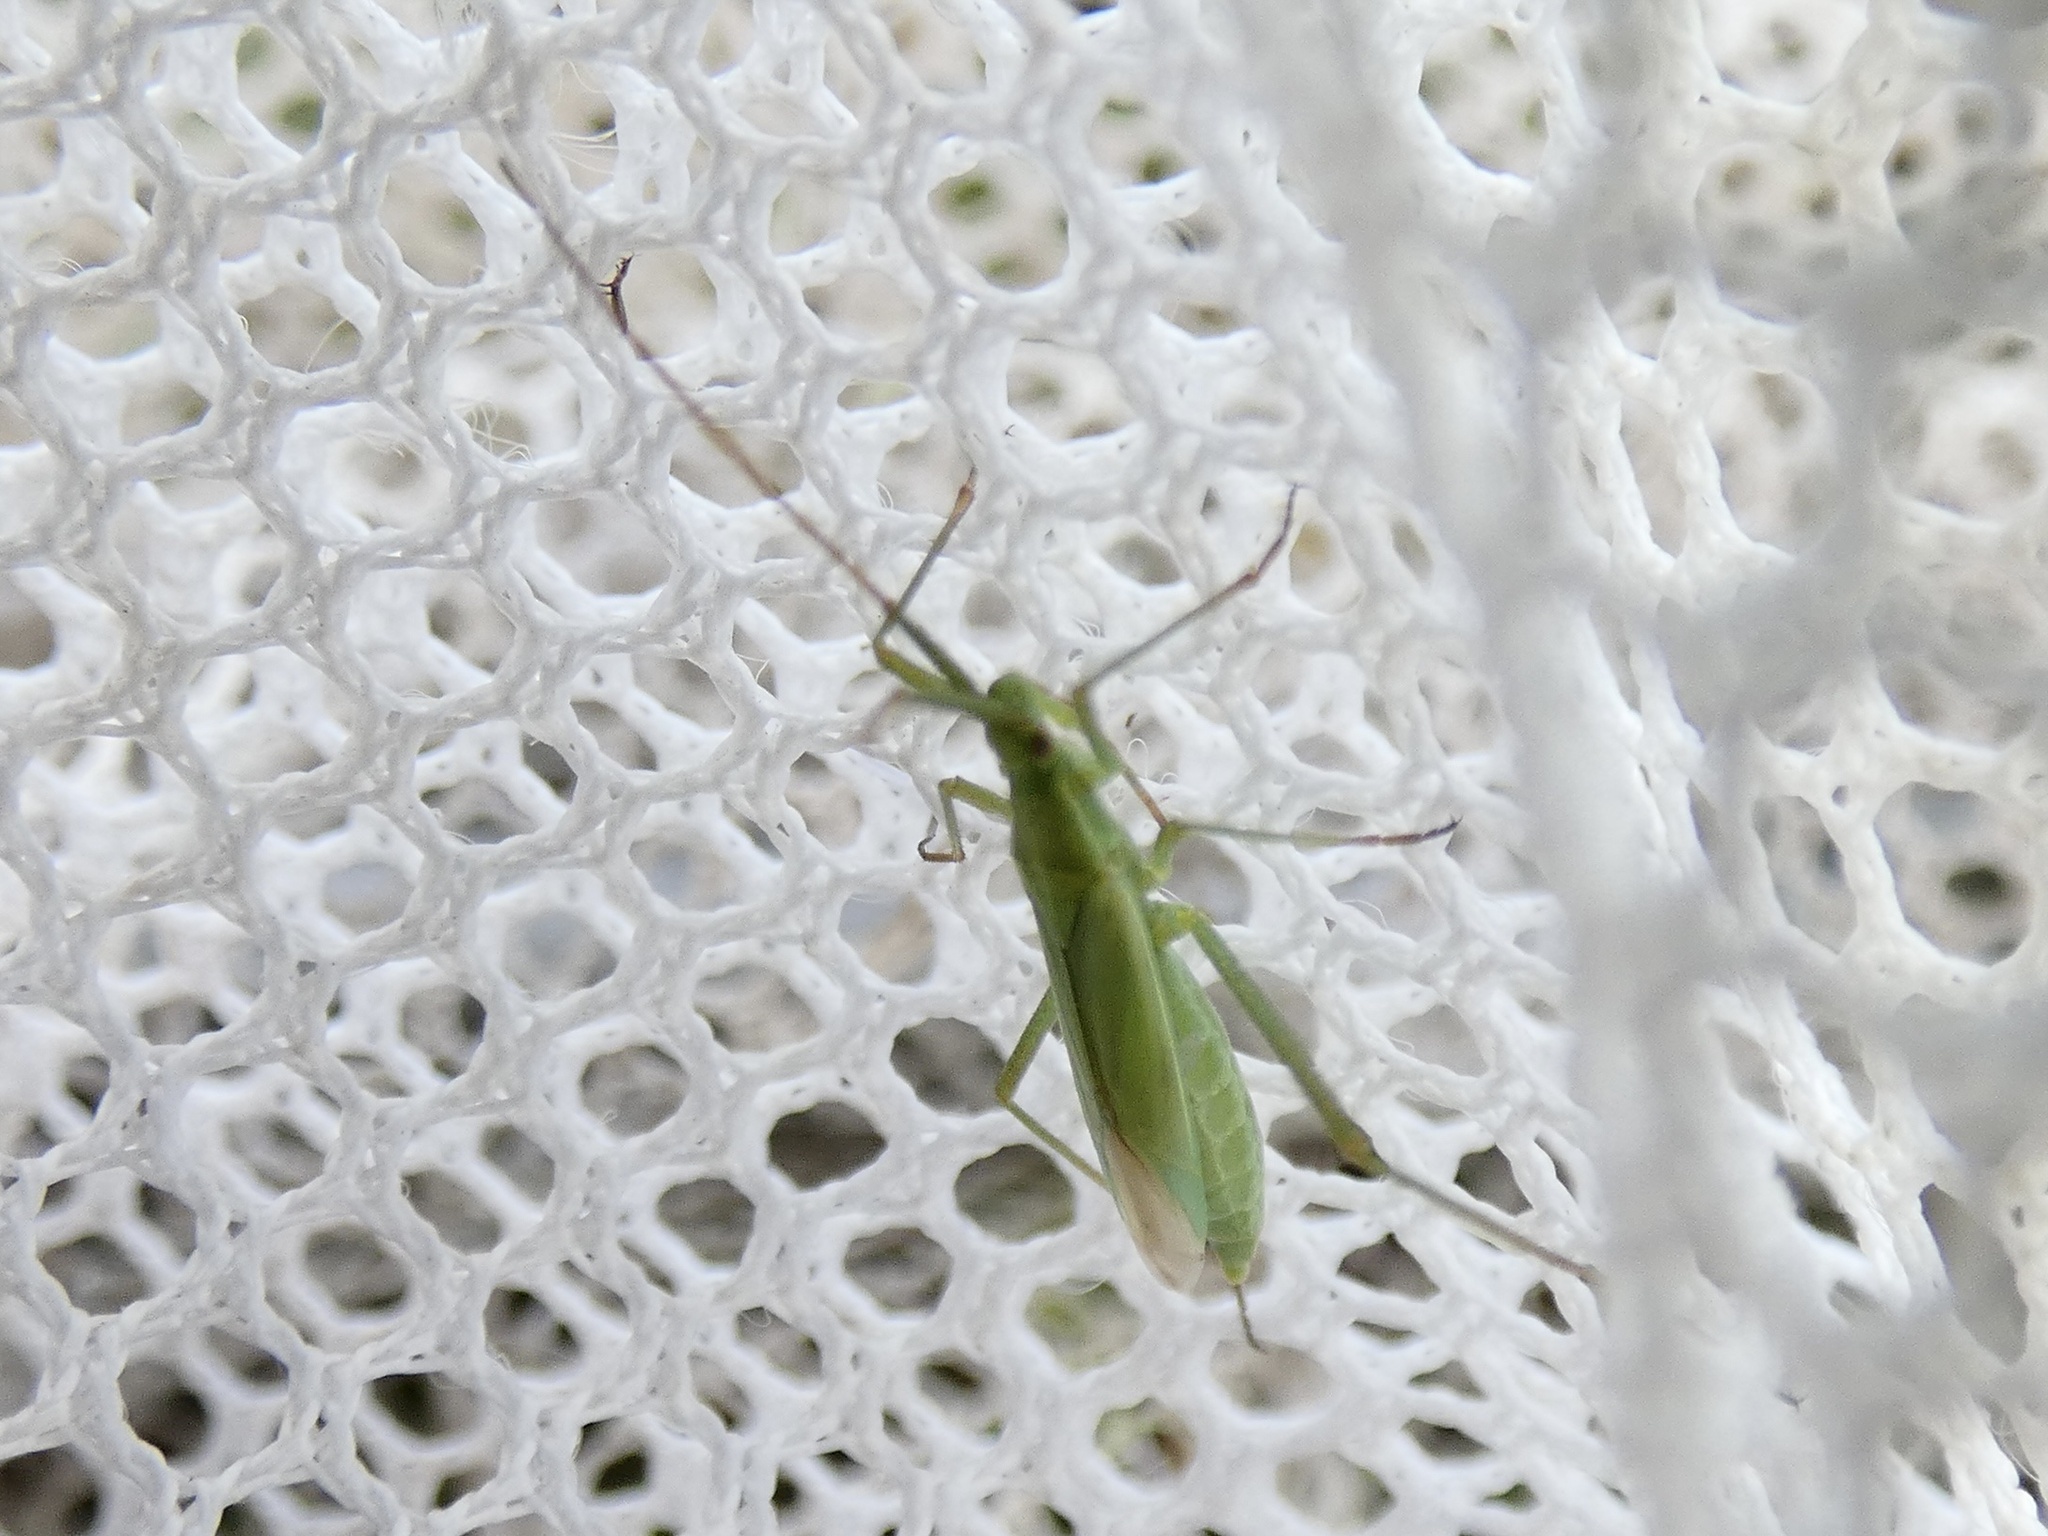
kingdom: Animalia
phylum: Arthropoda
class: Insecta
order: Hemiptera
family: Miridae
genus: Megaloceroea
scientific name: Megaloceroea recticornis
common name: Plant bug
